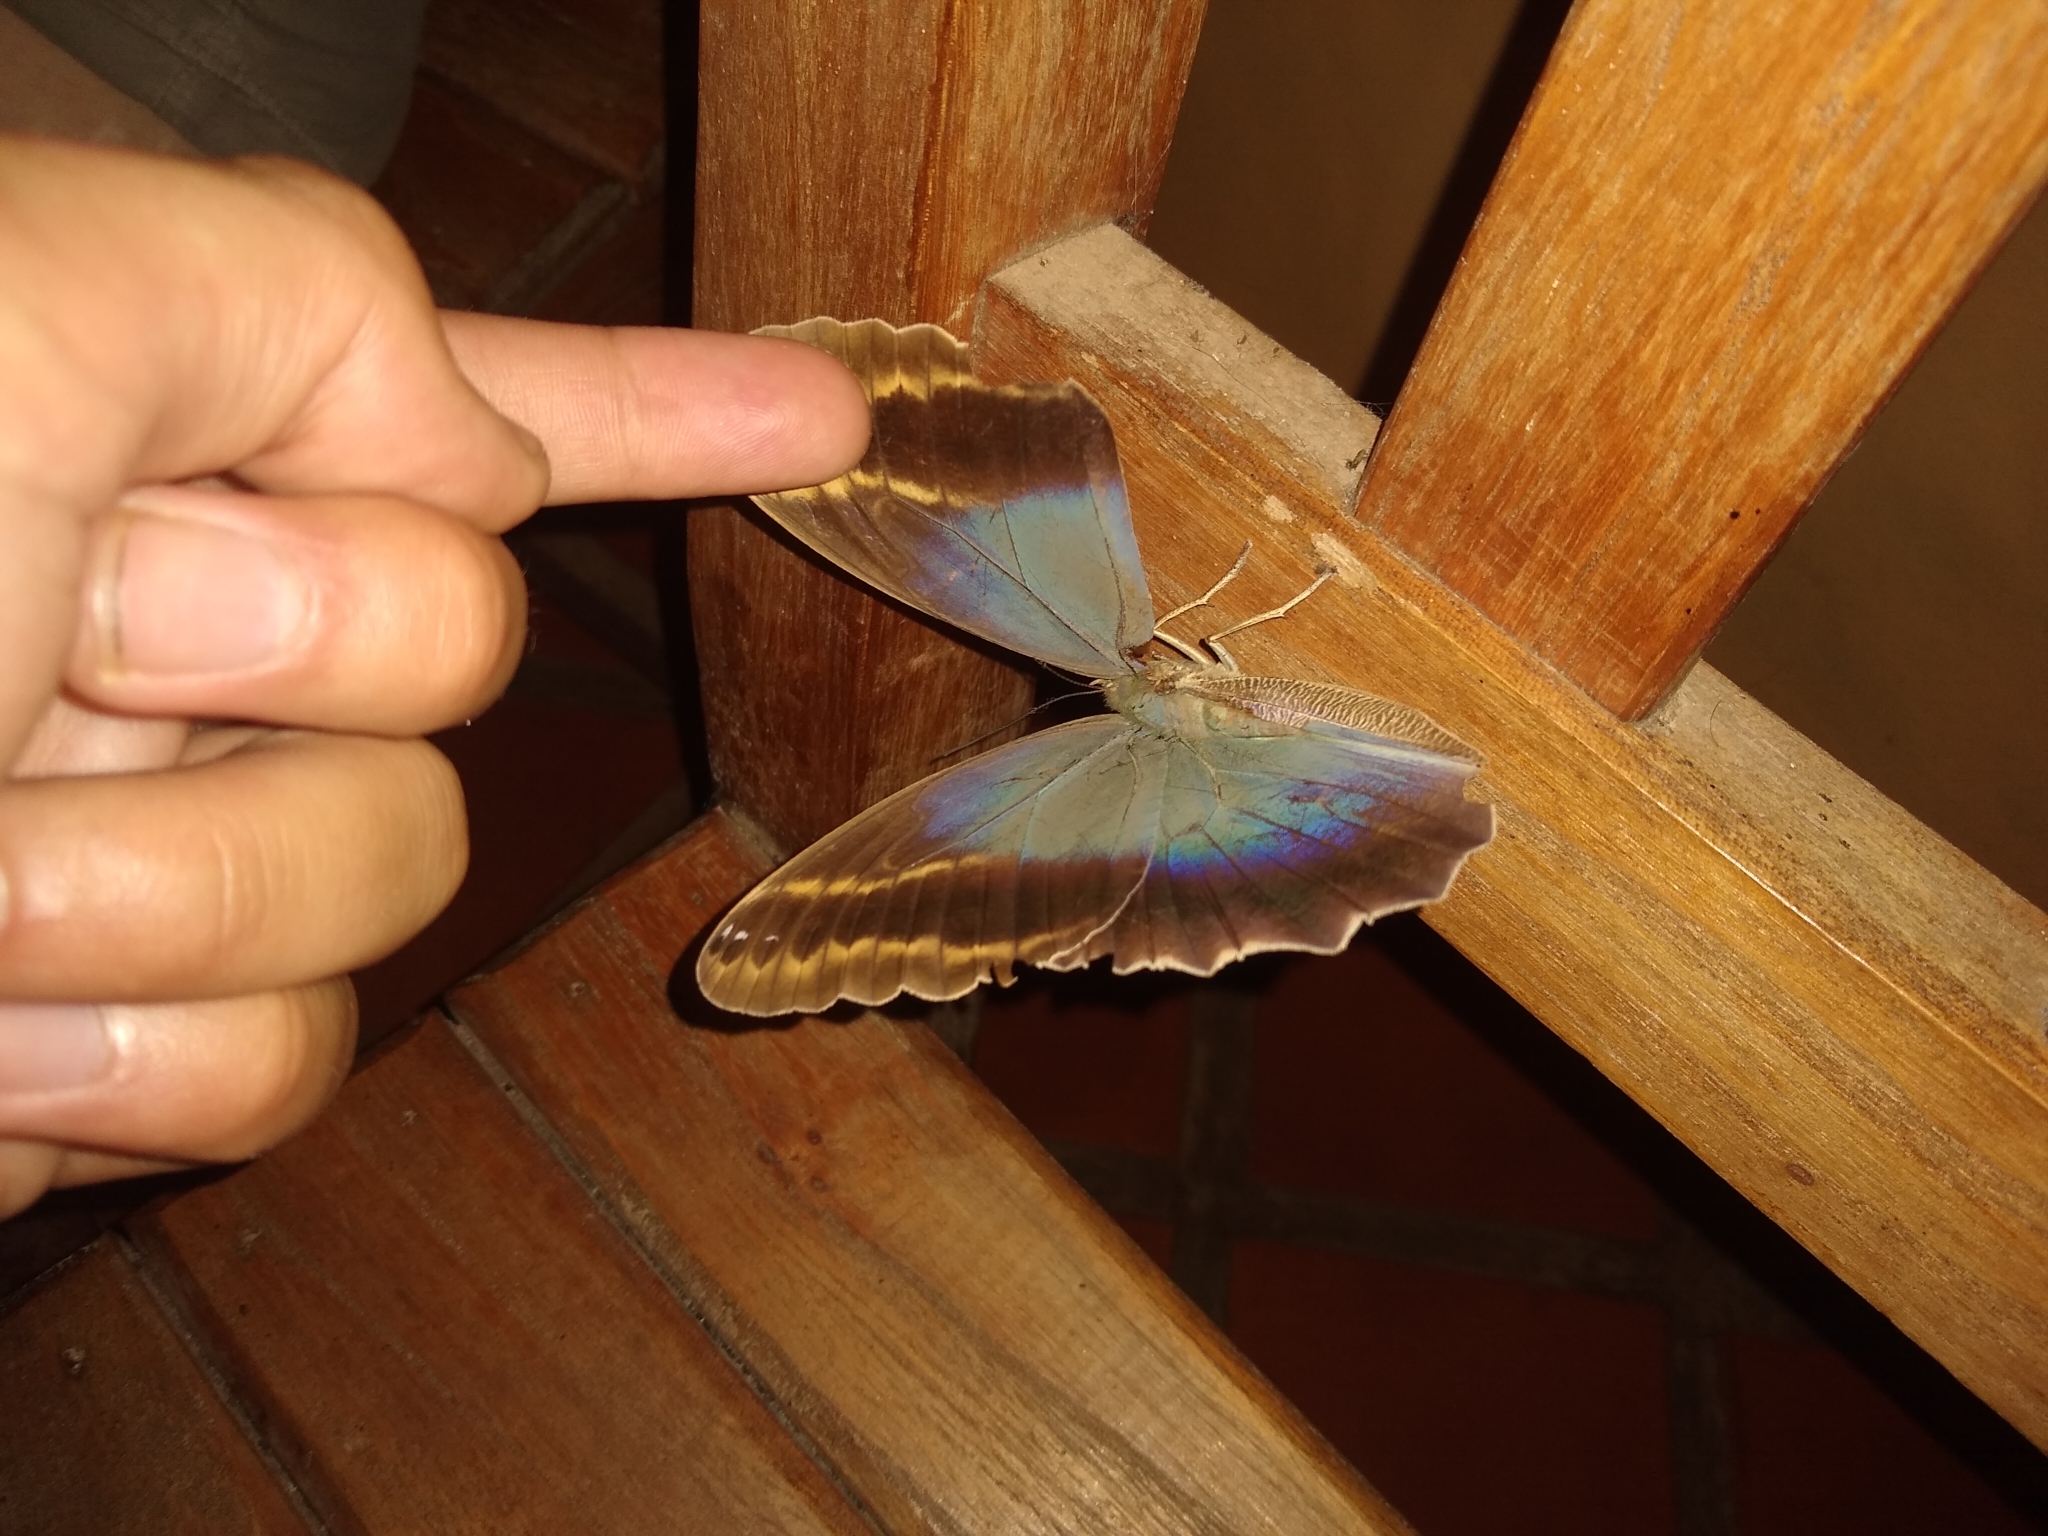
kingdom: Animalia
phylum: Arthropoda
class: Insecta
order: Lepidoptera
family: Nymphalidae
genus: Caligo
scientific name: Caligo illioneus
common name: Dusky owl-butterfly
